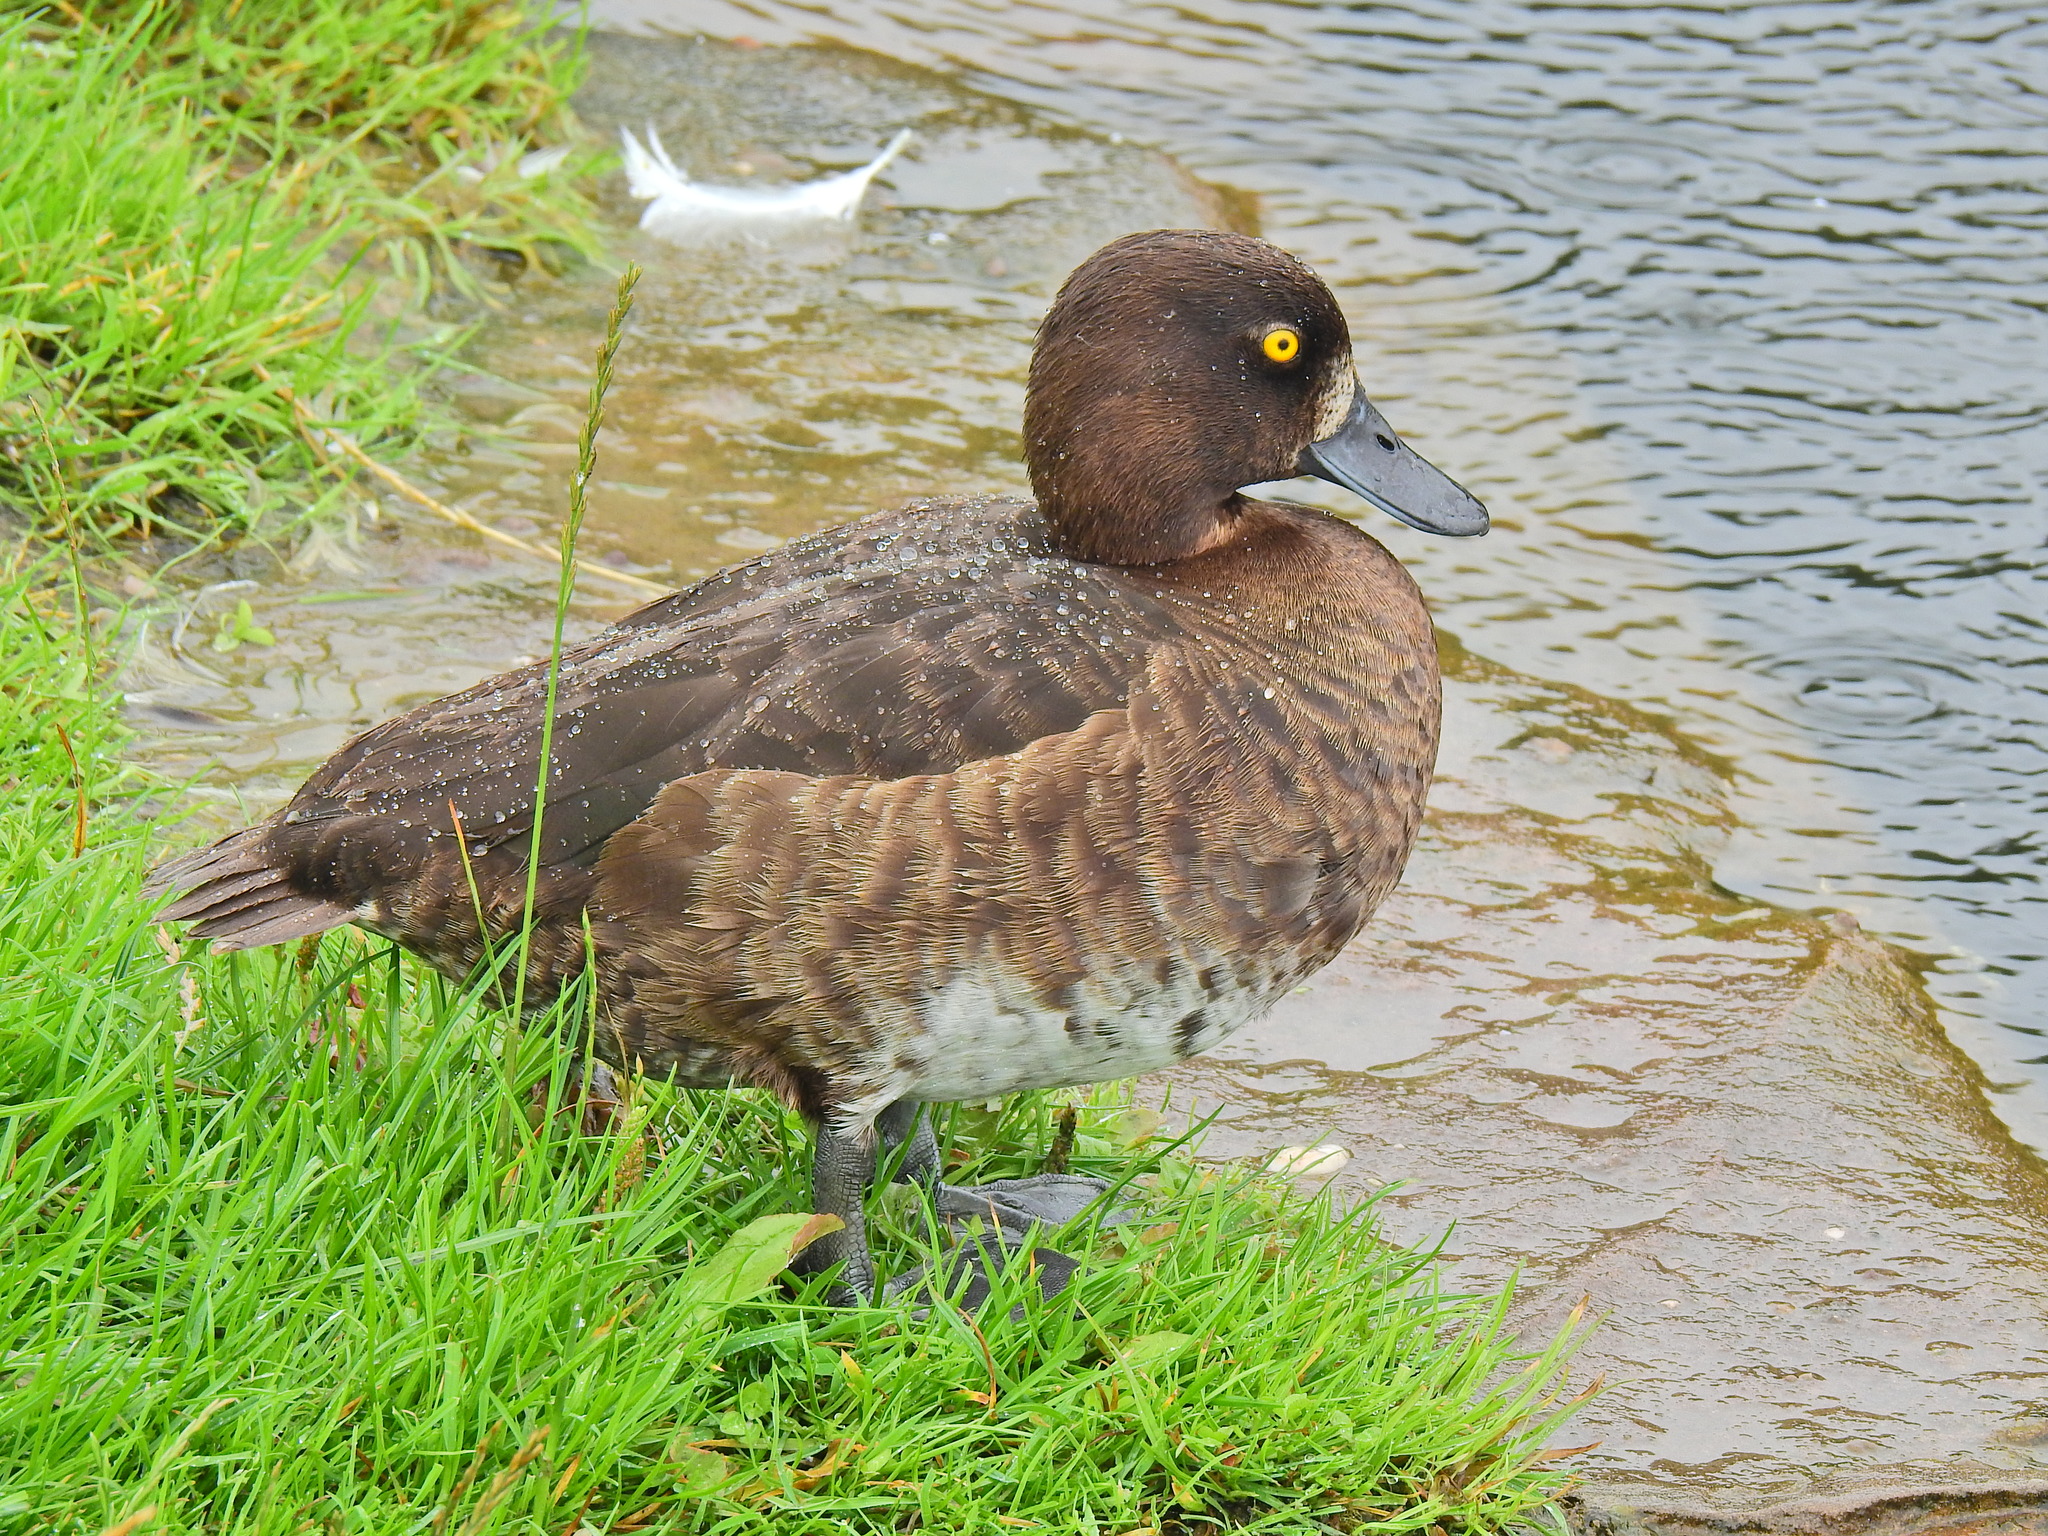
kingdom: Animalia
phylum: Chordata
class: Aves
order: Anseriformes
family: Anatidae
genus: Aythya
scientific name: Aythya fuligula
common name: Tufted duck
